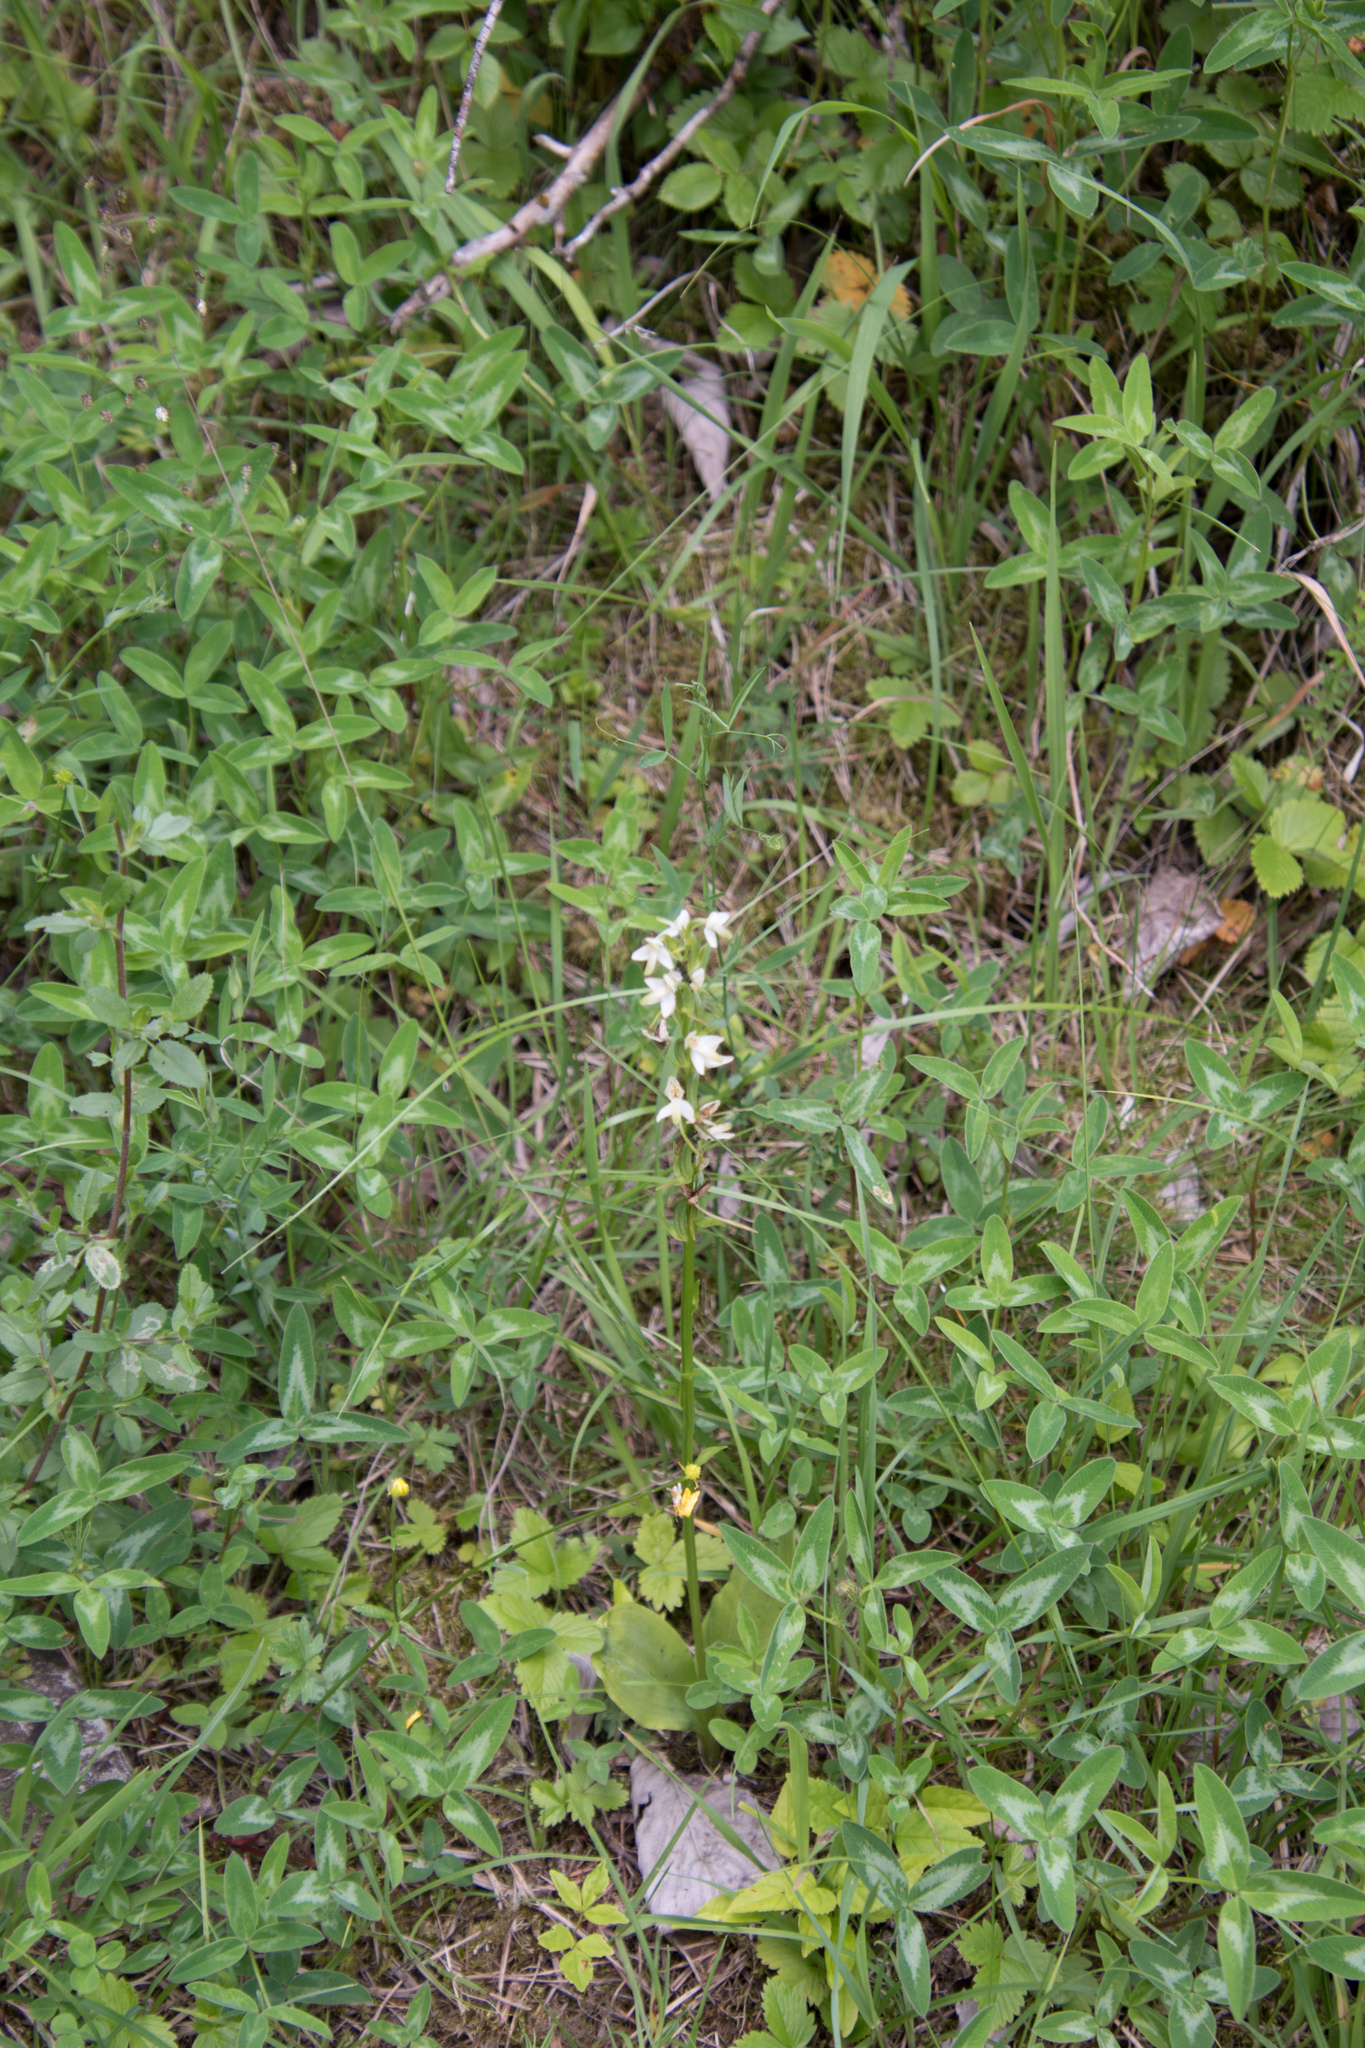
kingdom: Plantae
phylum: Tracheophyta
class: Liliopsida
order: Asparagales
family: Orchidaceae
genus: Platanthera
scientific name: Platanthera bifolia
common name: Lesser butterfly-orchid
